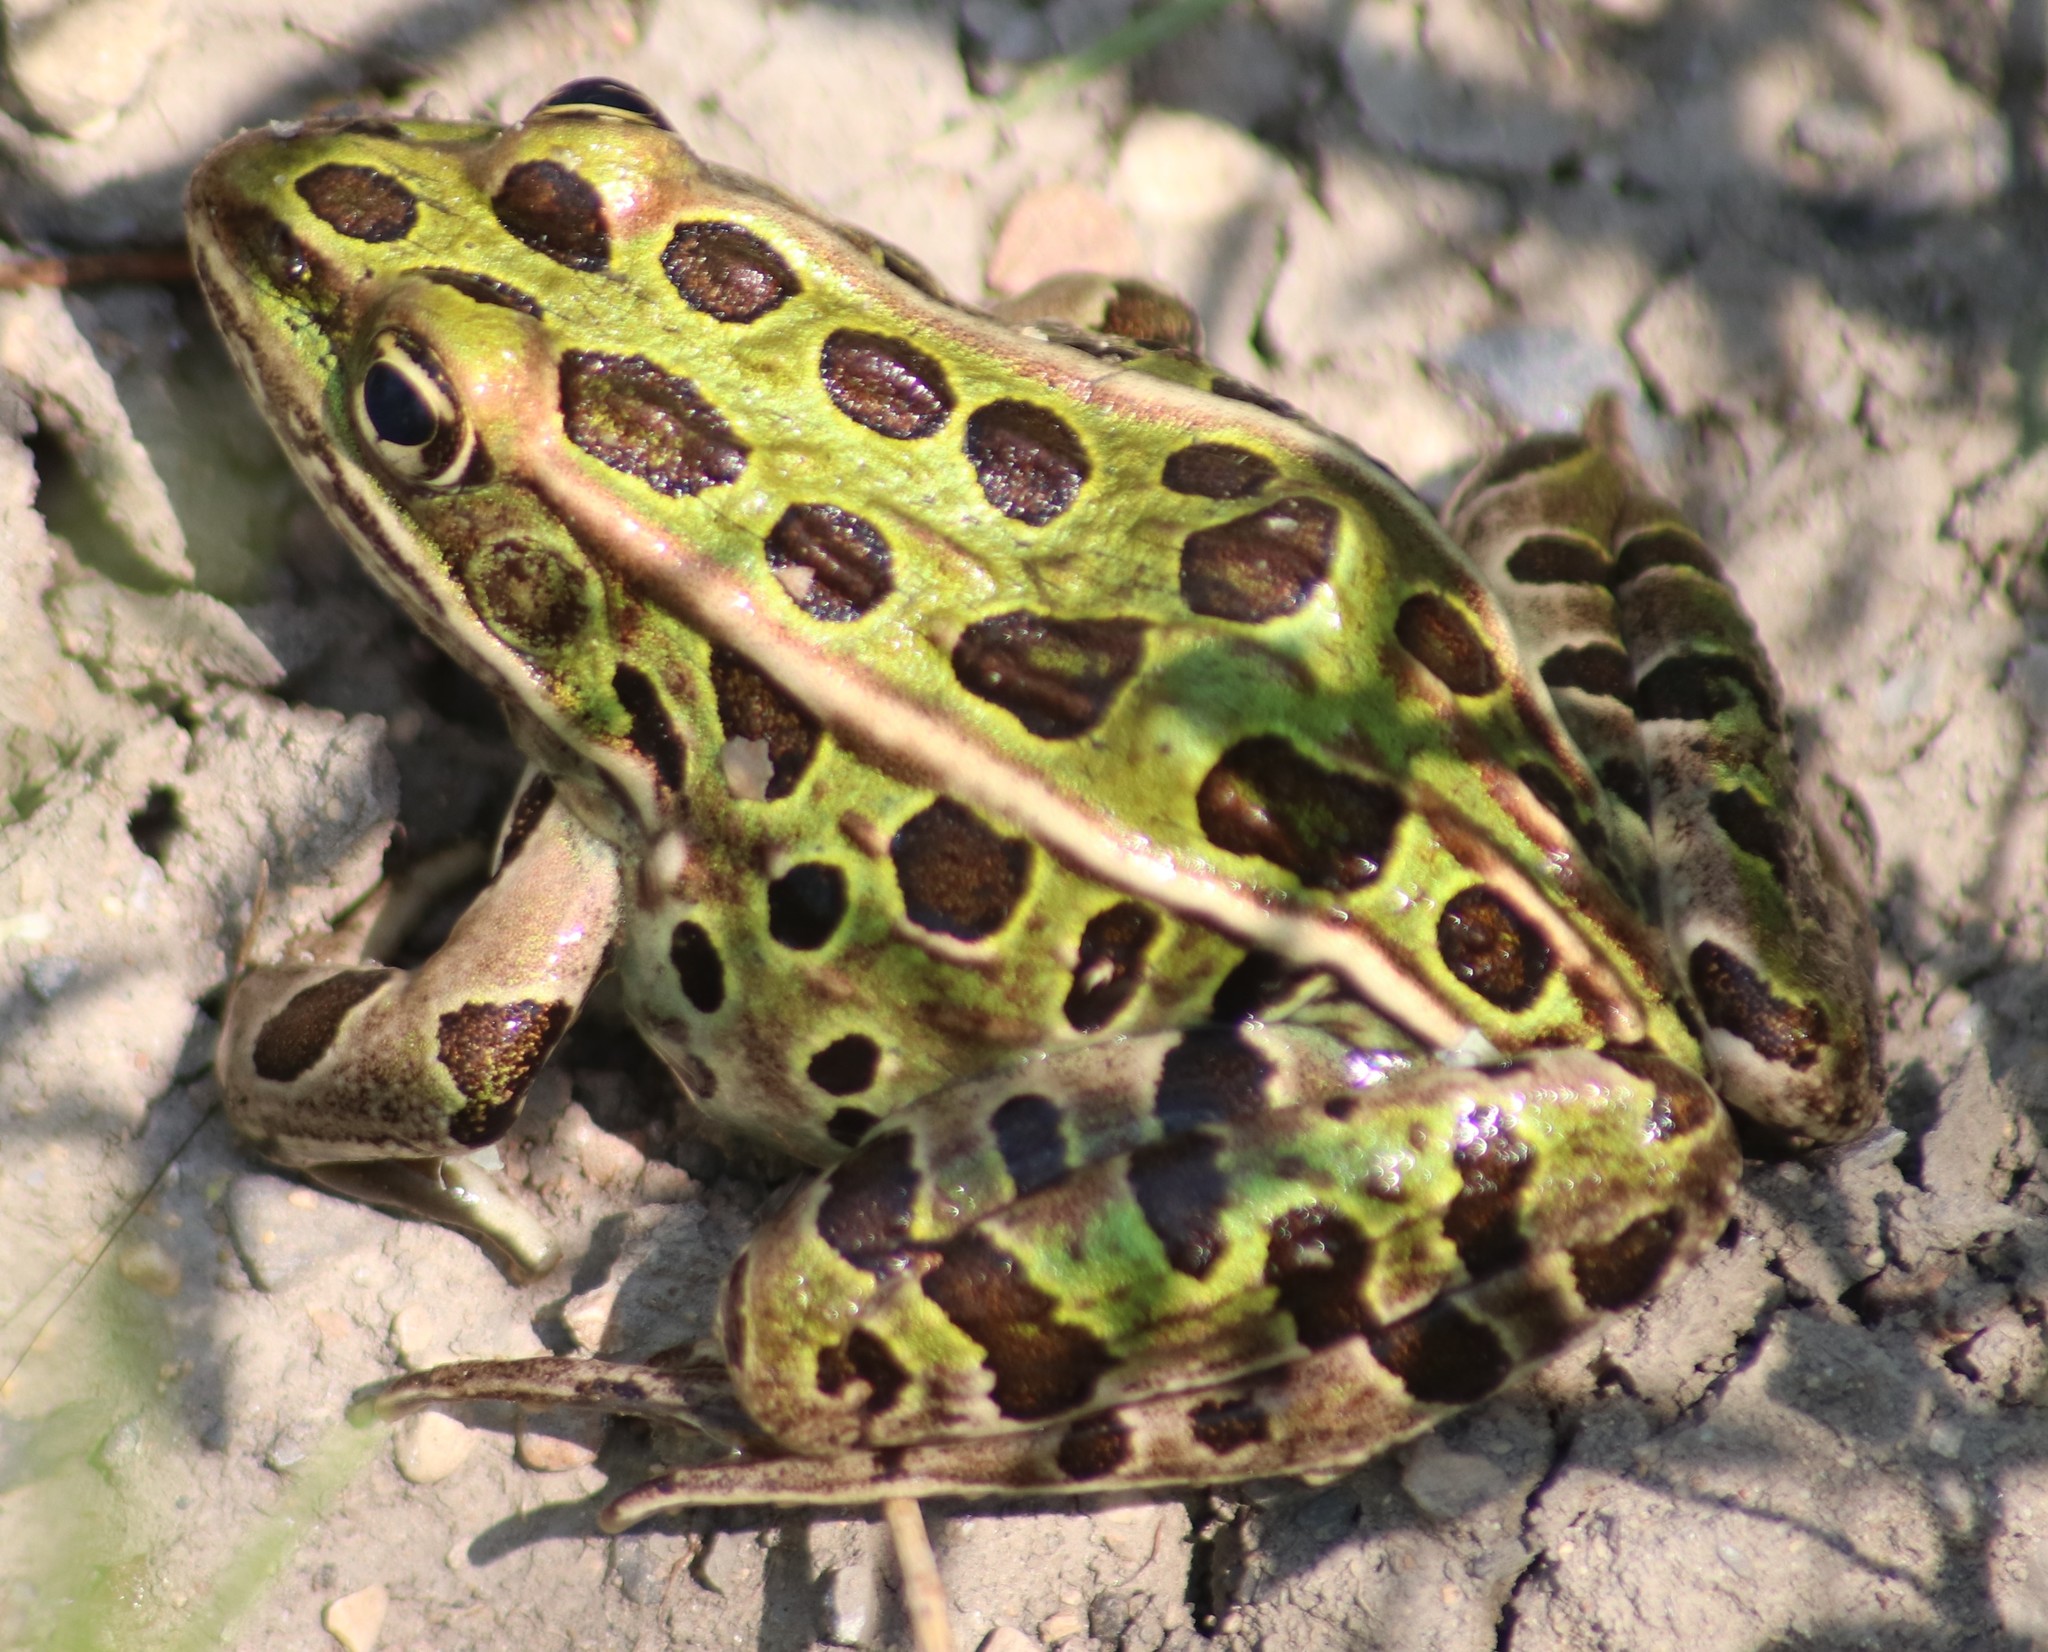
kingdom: Animalia
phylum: Chordata
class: Amphibia
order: Anura
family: Ranidae
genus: Lithobates
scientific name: Lithobates pipiens
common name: Northern leopard frog
